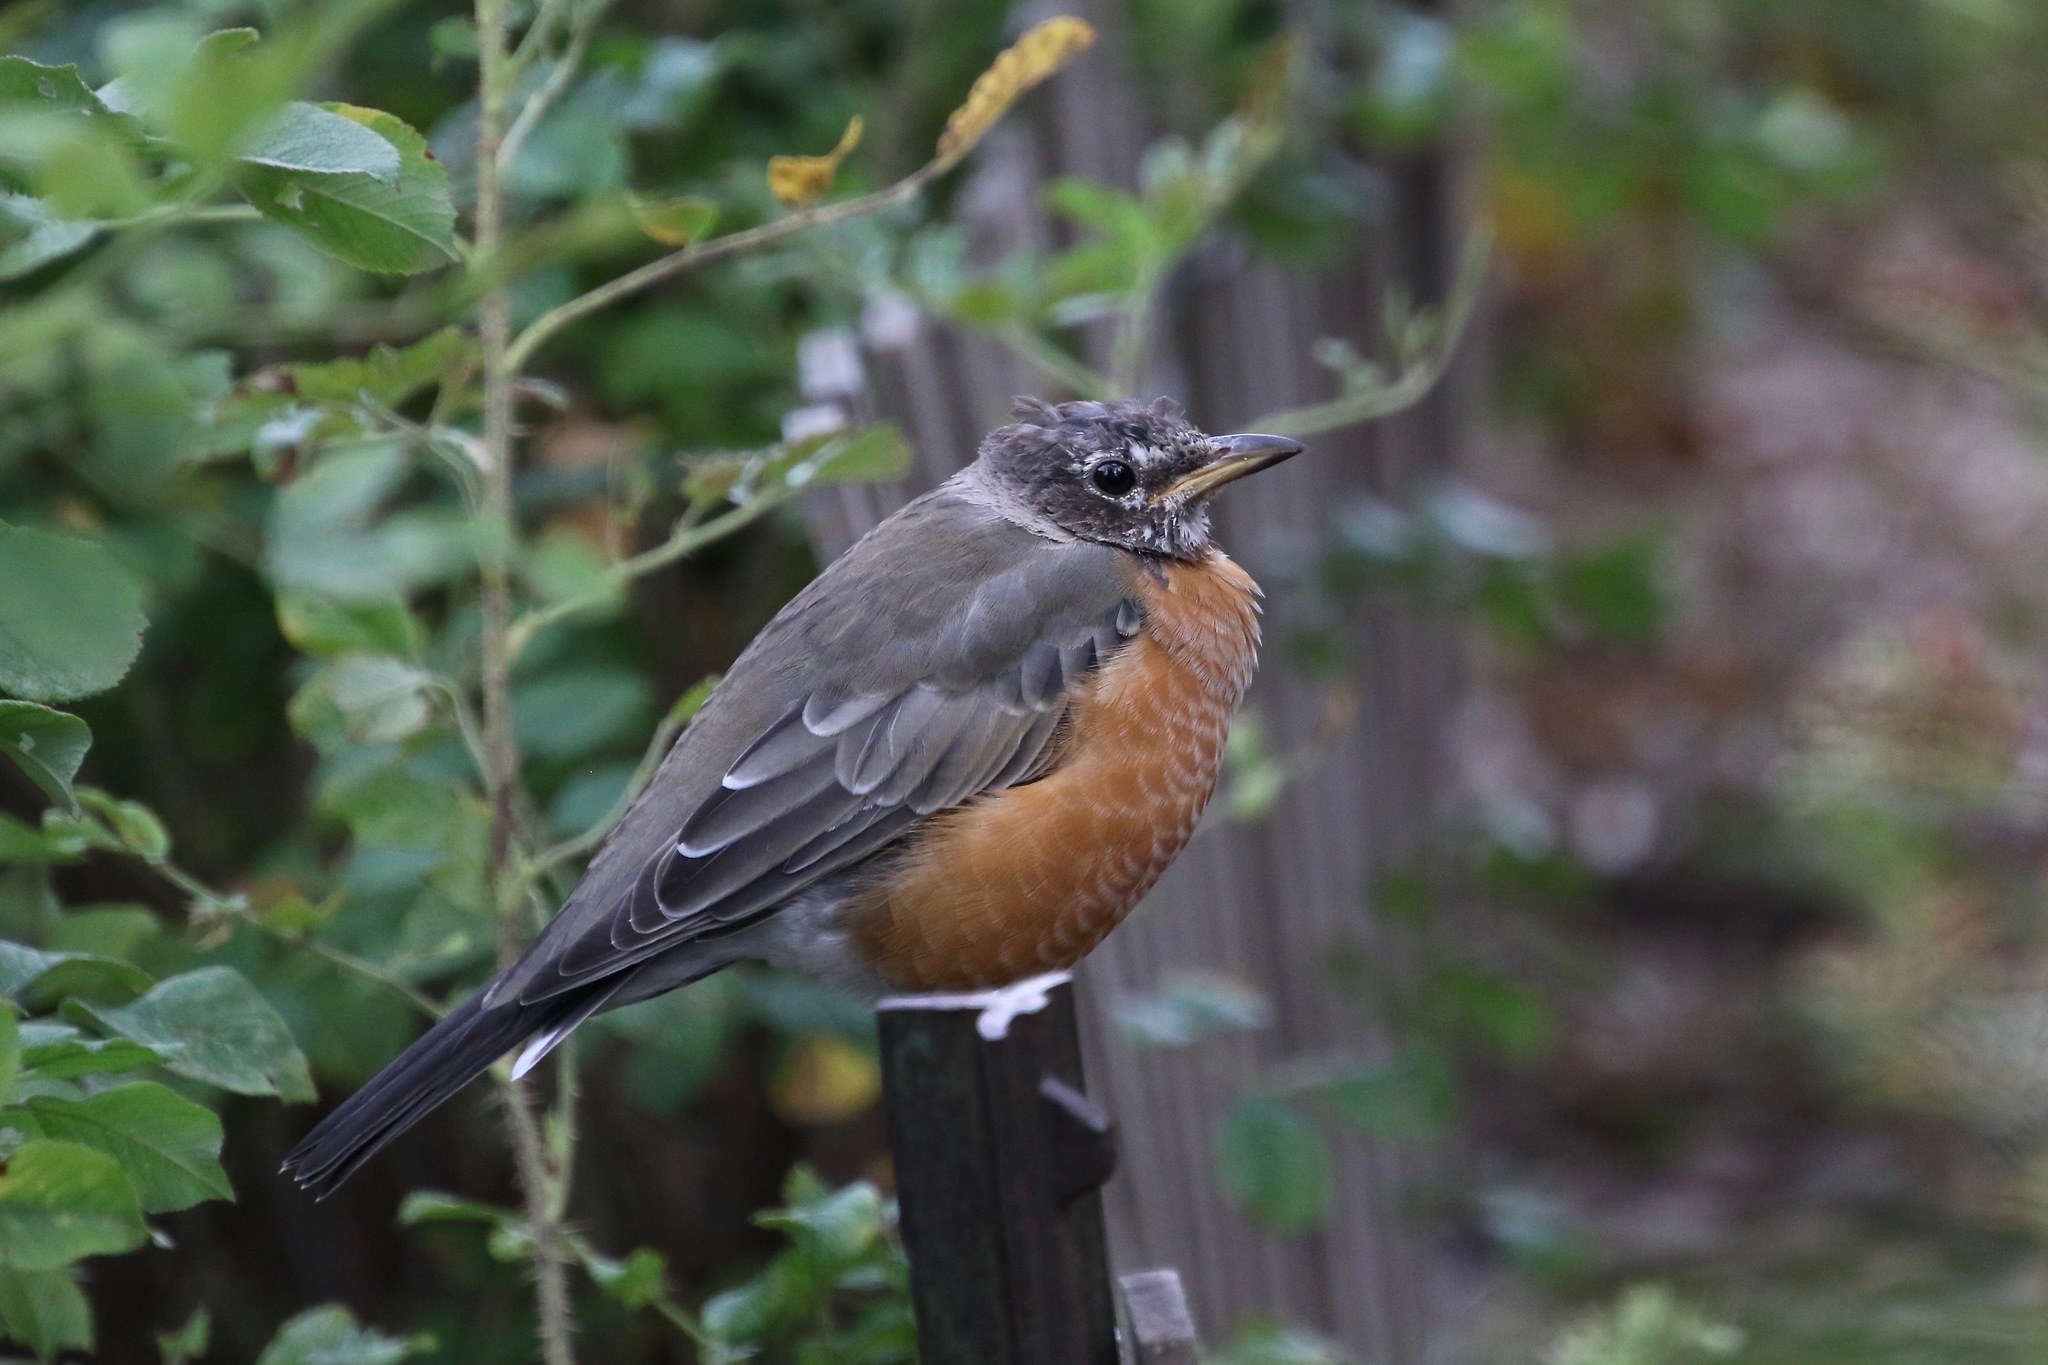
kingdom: Animalia
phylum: Chordata
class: Aves
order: Passeriformes
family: Turdidae
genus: Turdus
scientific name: Turdus migratorius
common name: American robin
